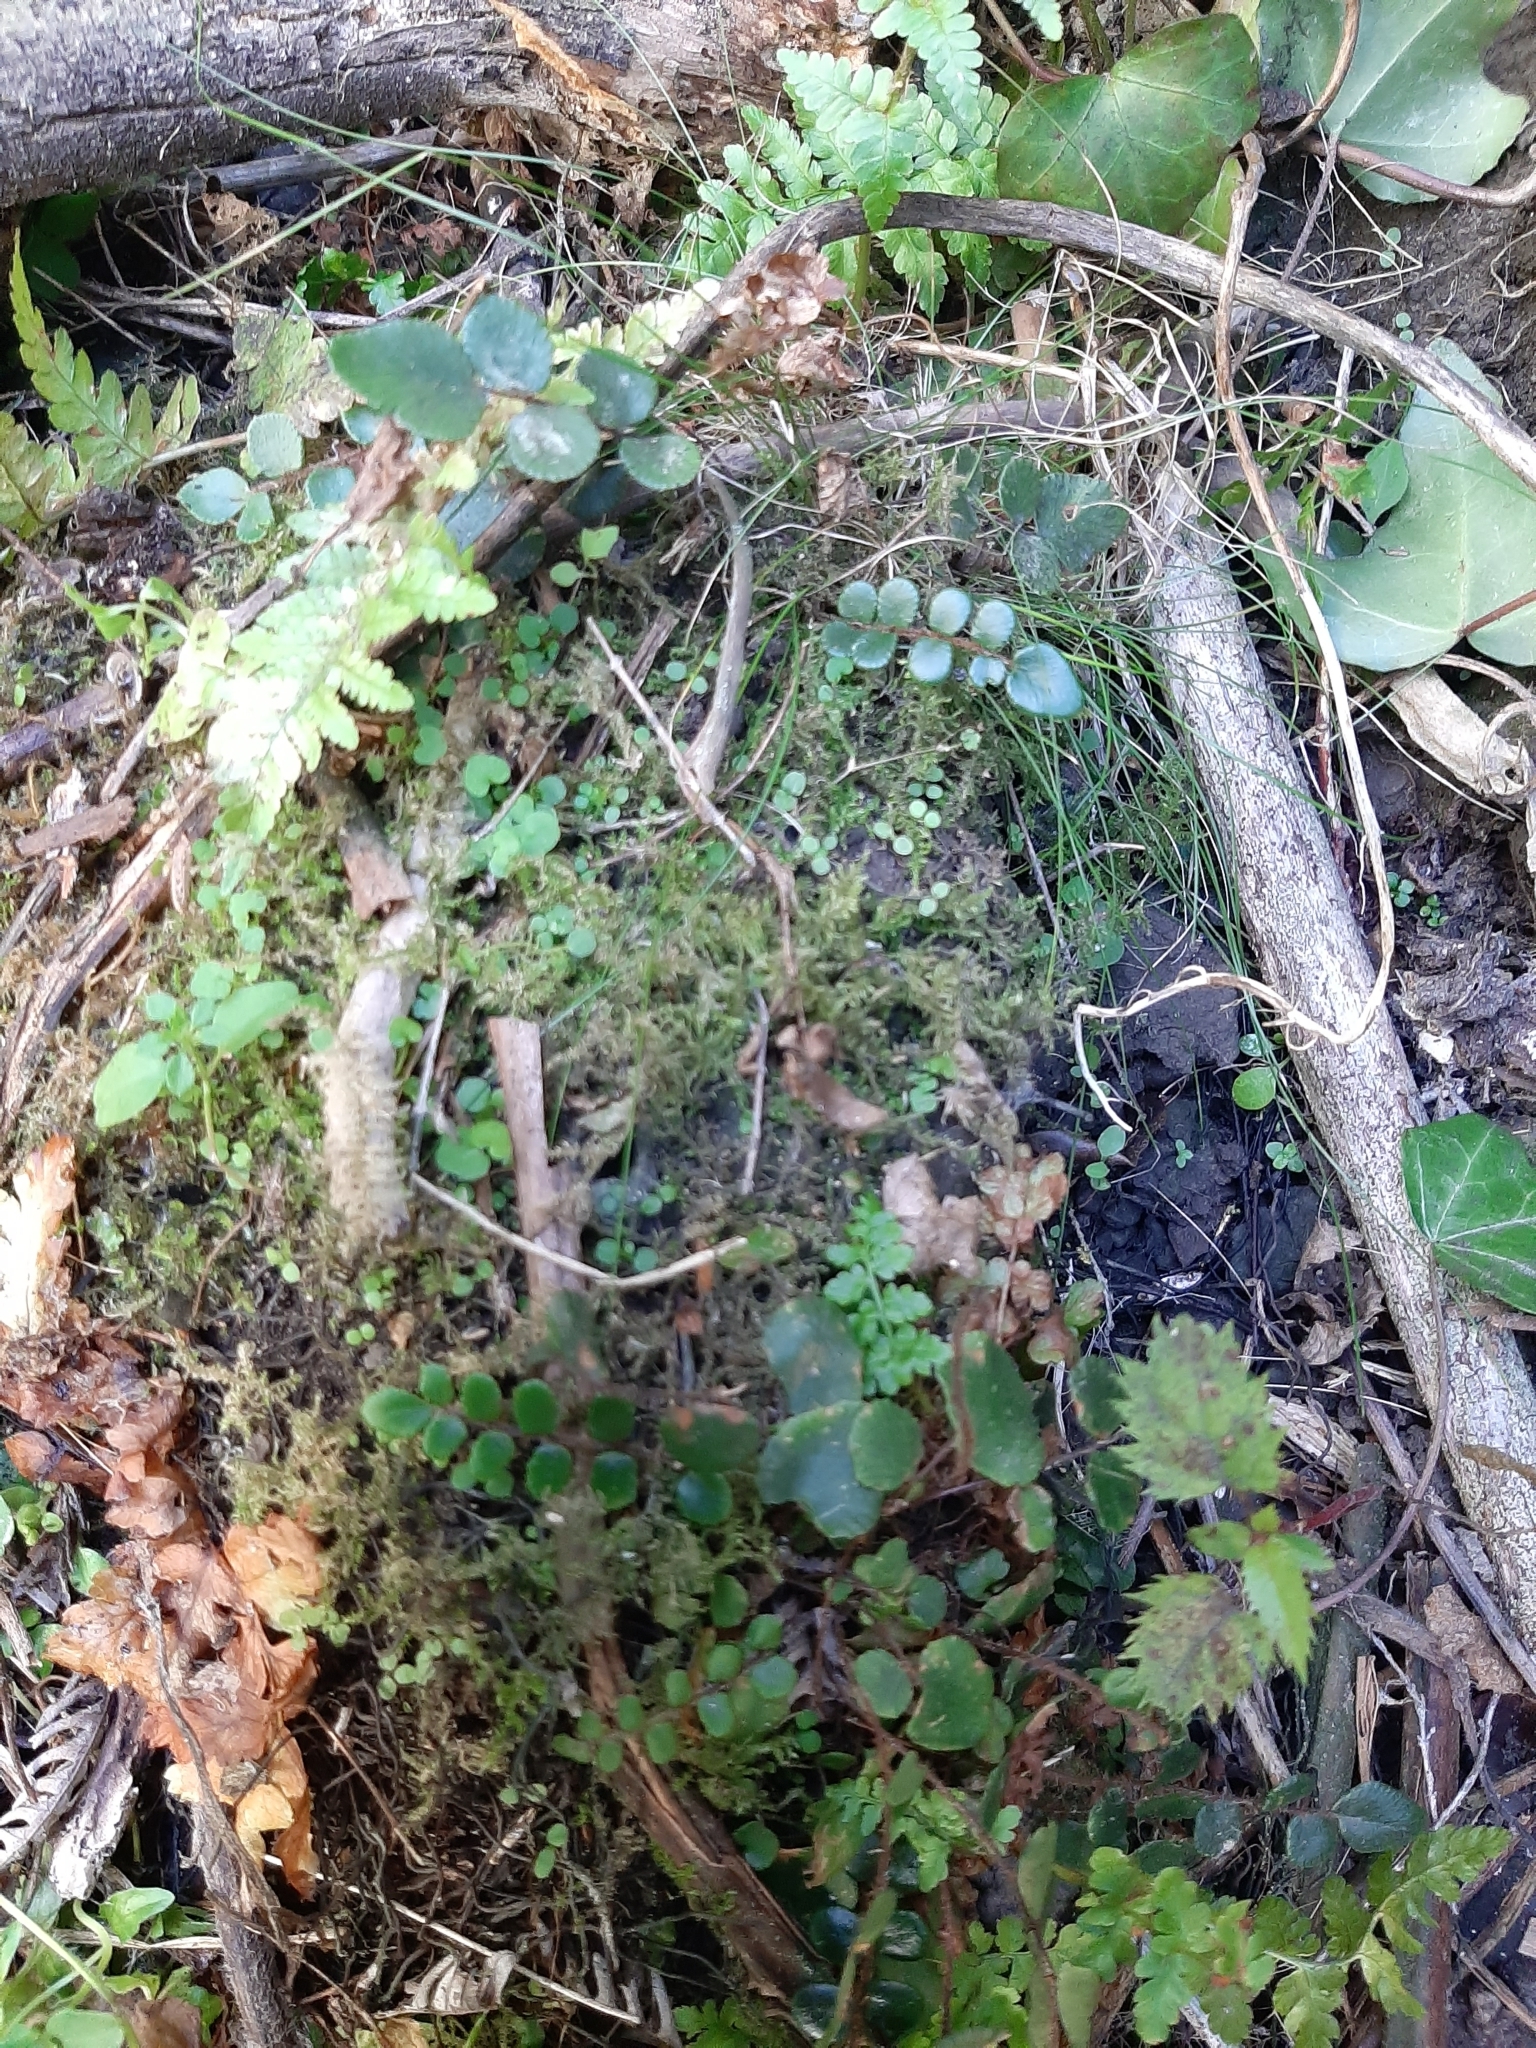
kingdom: Plantae
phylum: Tracheophyta
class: Magnoliopsida
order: Oxalidales
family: Elaeocarpaceae
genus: Aristotelia
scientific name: Aristotelia serrata
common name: New zealand wineberry
